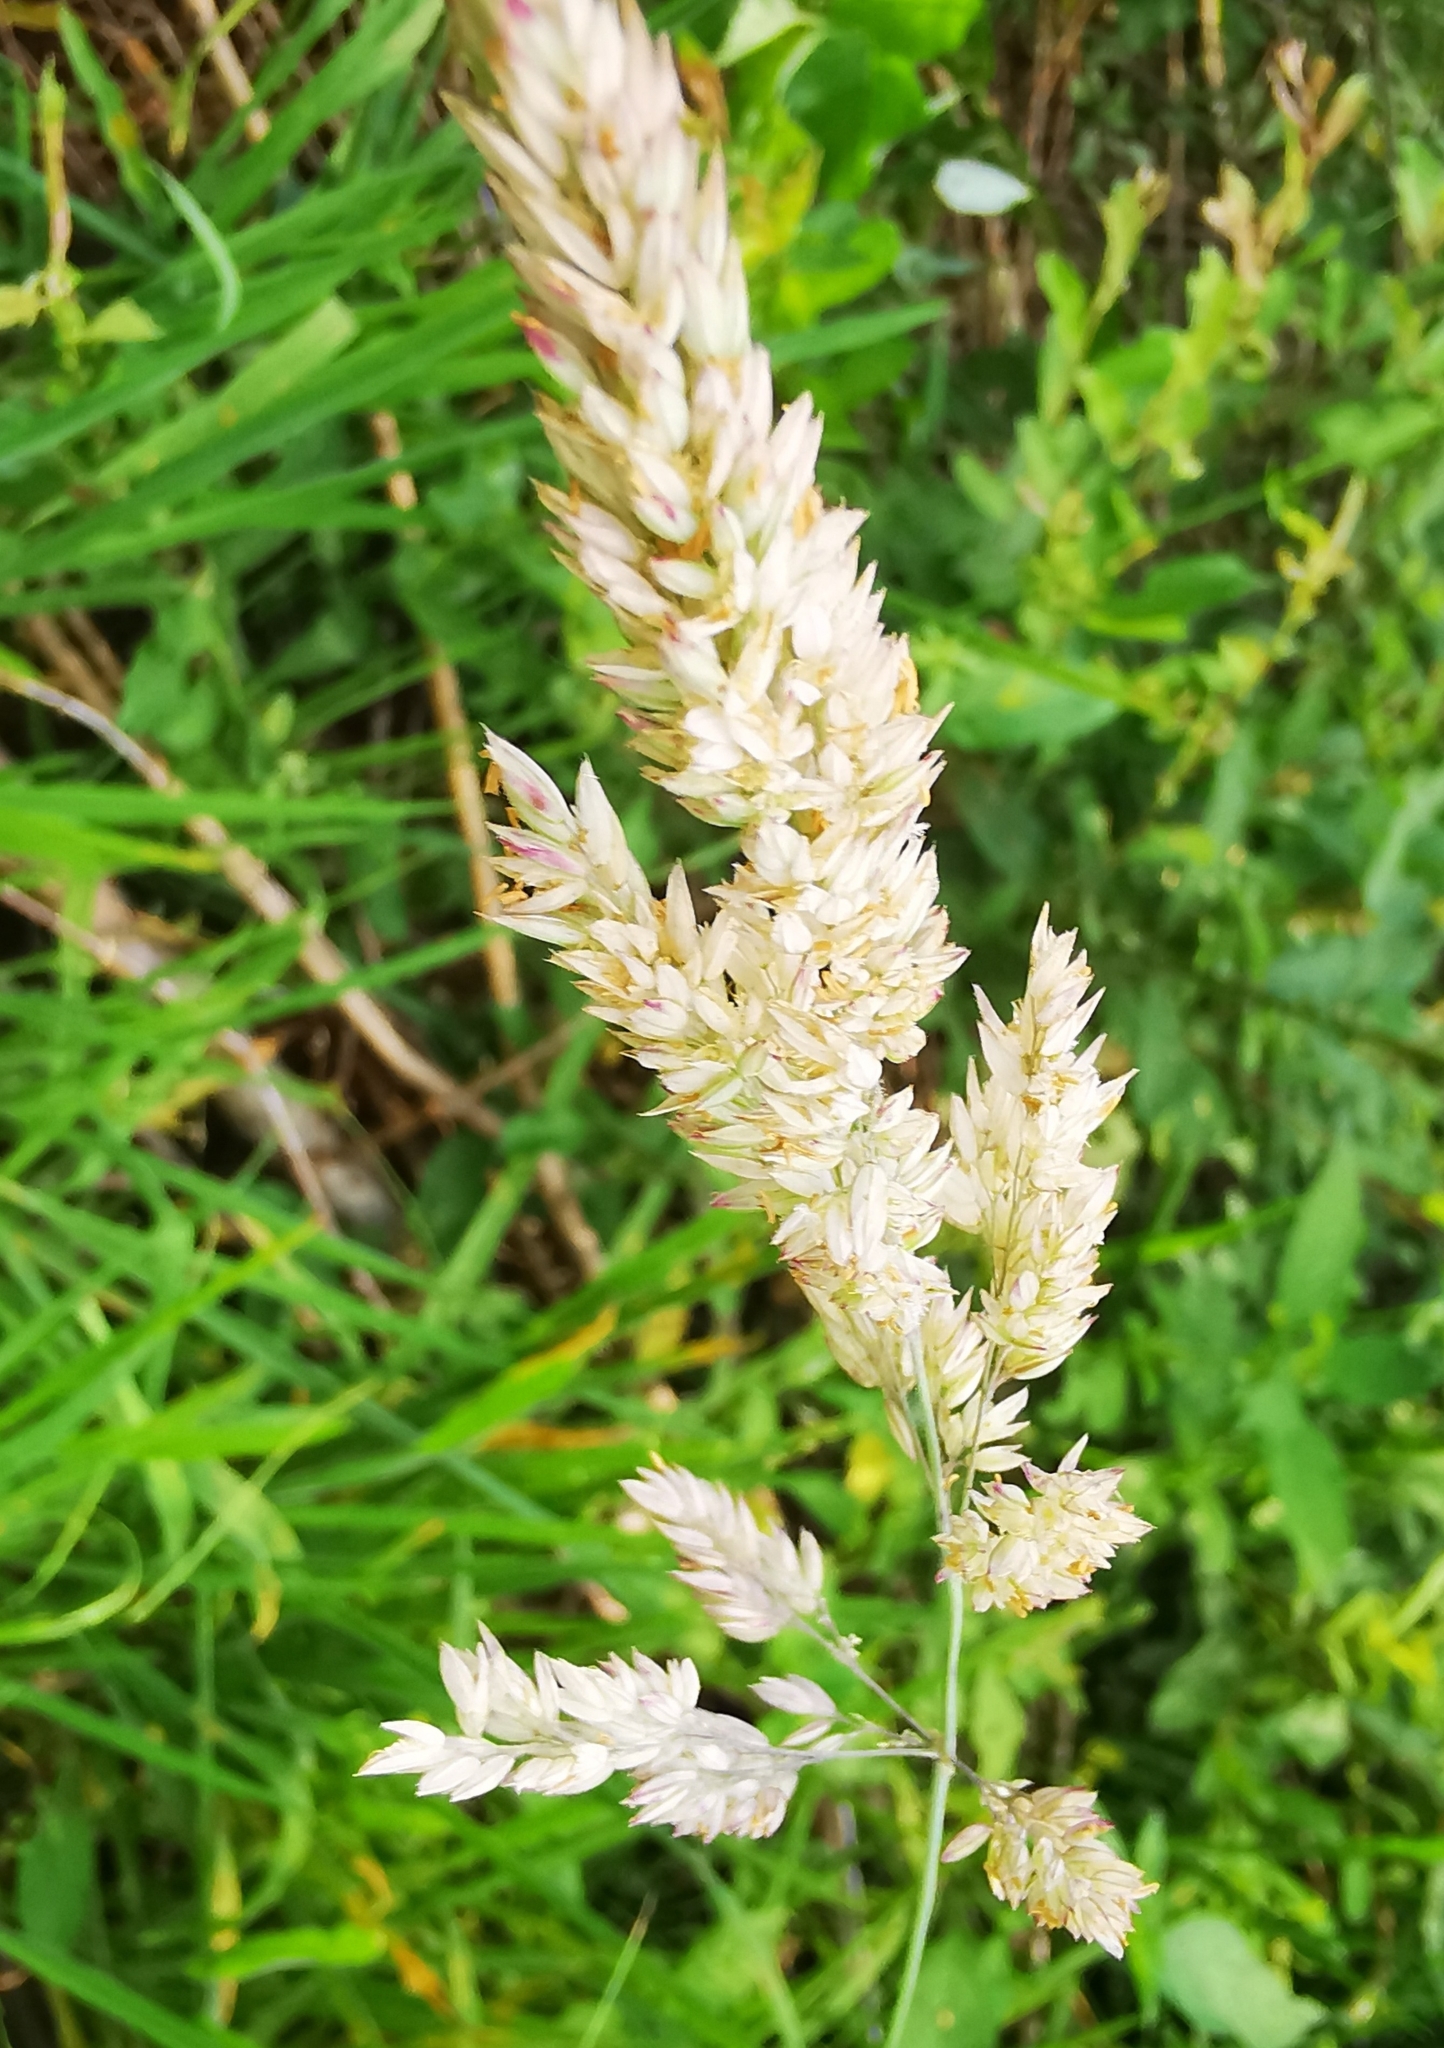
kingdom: Plantae
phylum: Tracheophyta
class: Liliopsida
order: Poales
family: Poaceae
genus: Holcus
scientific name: Holcus lanatus
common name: Yorkshire-fog
